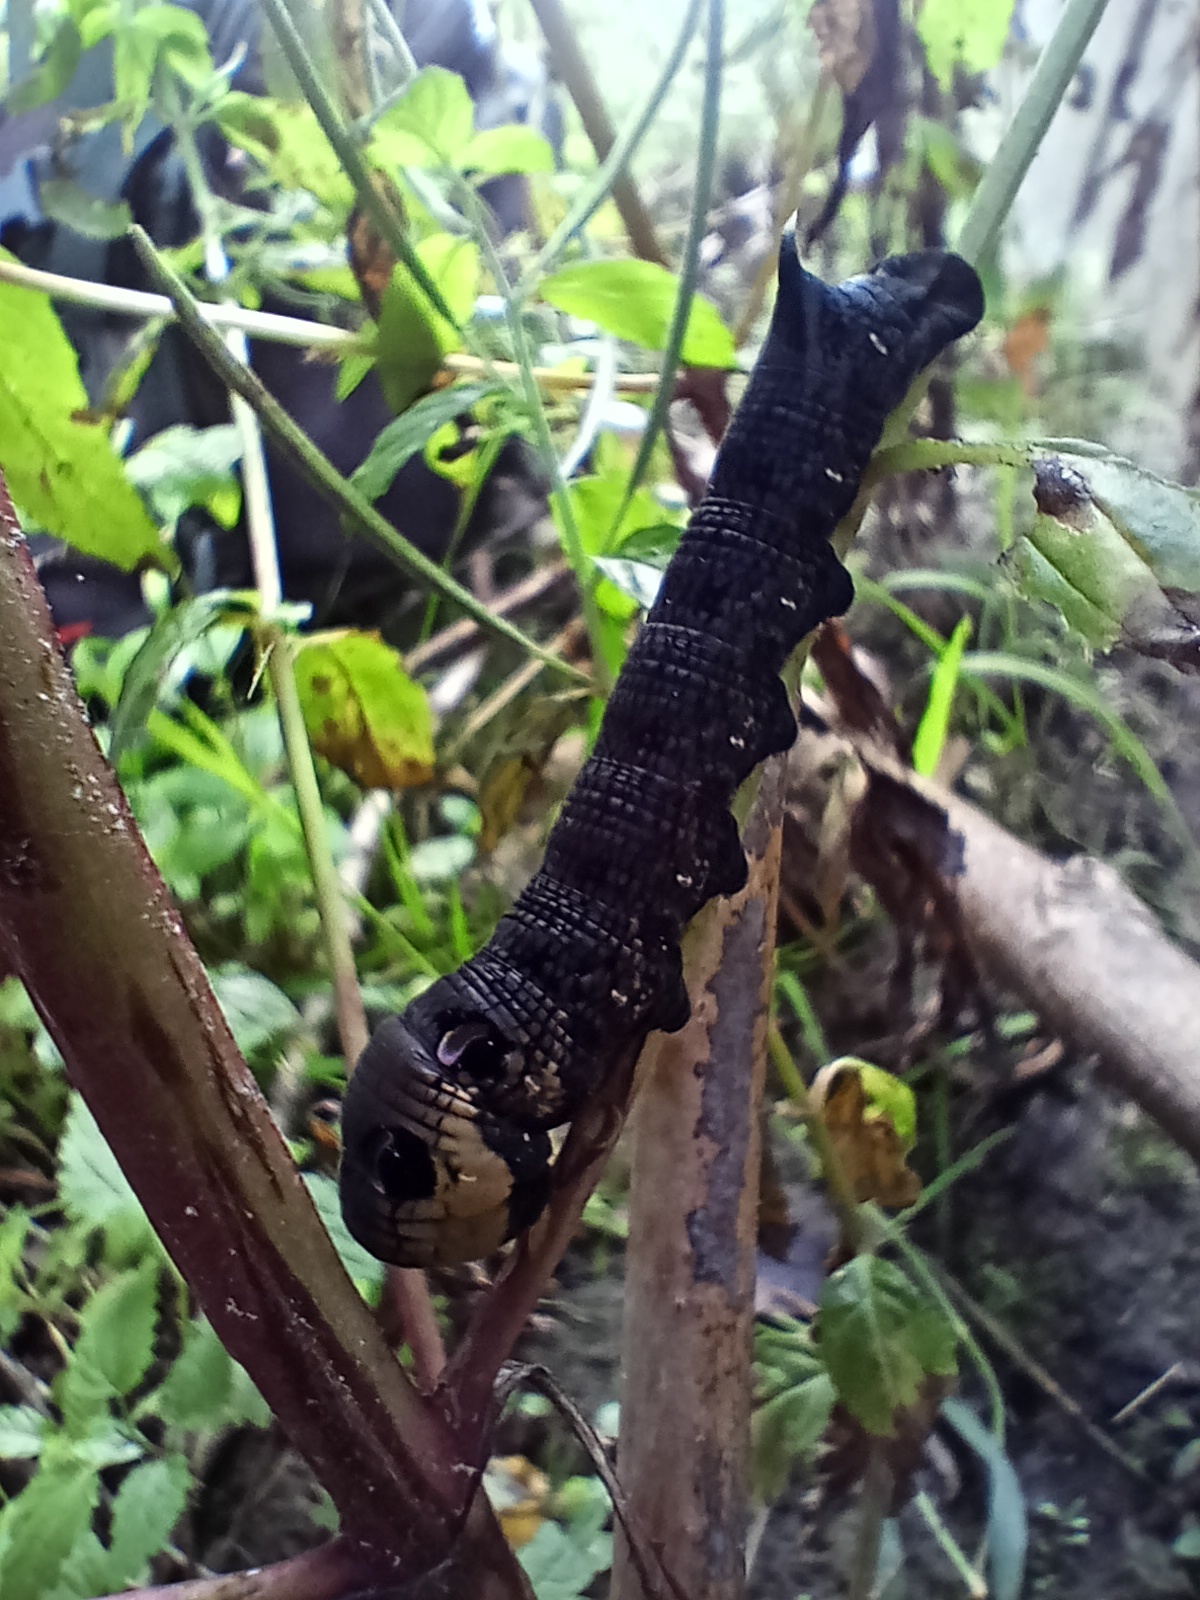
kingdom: Animalia
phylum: Arthropoda
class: Insecta
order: Lepidoptera
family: Sphingidae
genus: Deilephila
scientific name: Deilephila elpenor
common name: Elephant hawk-moth
